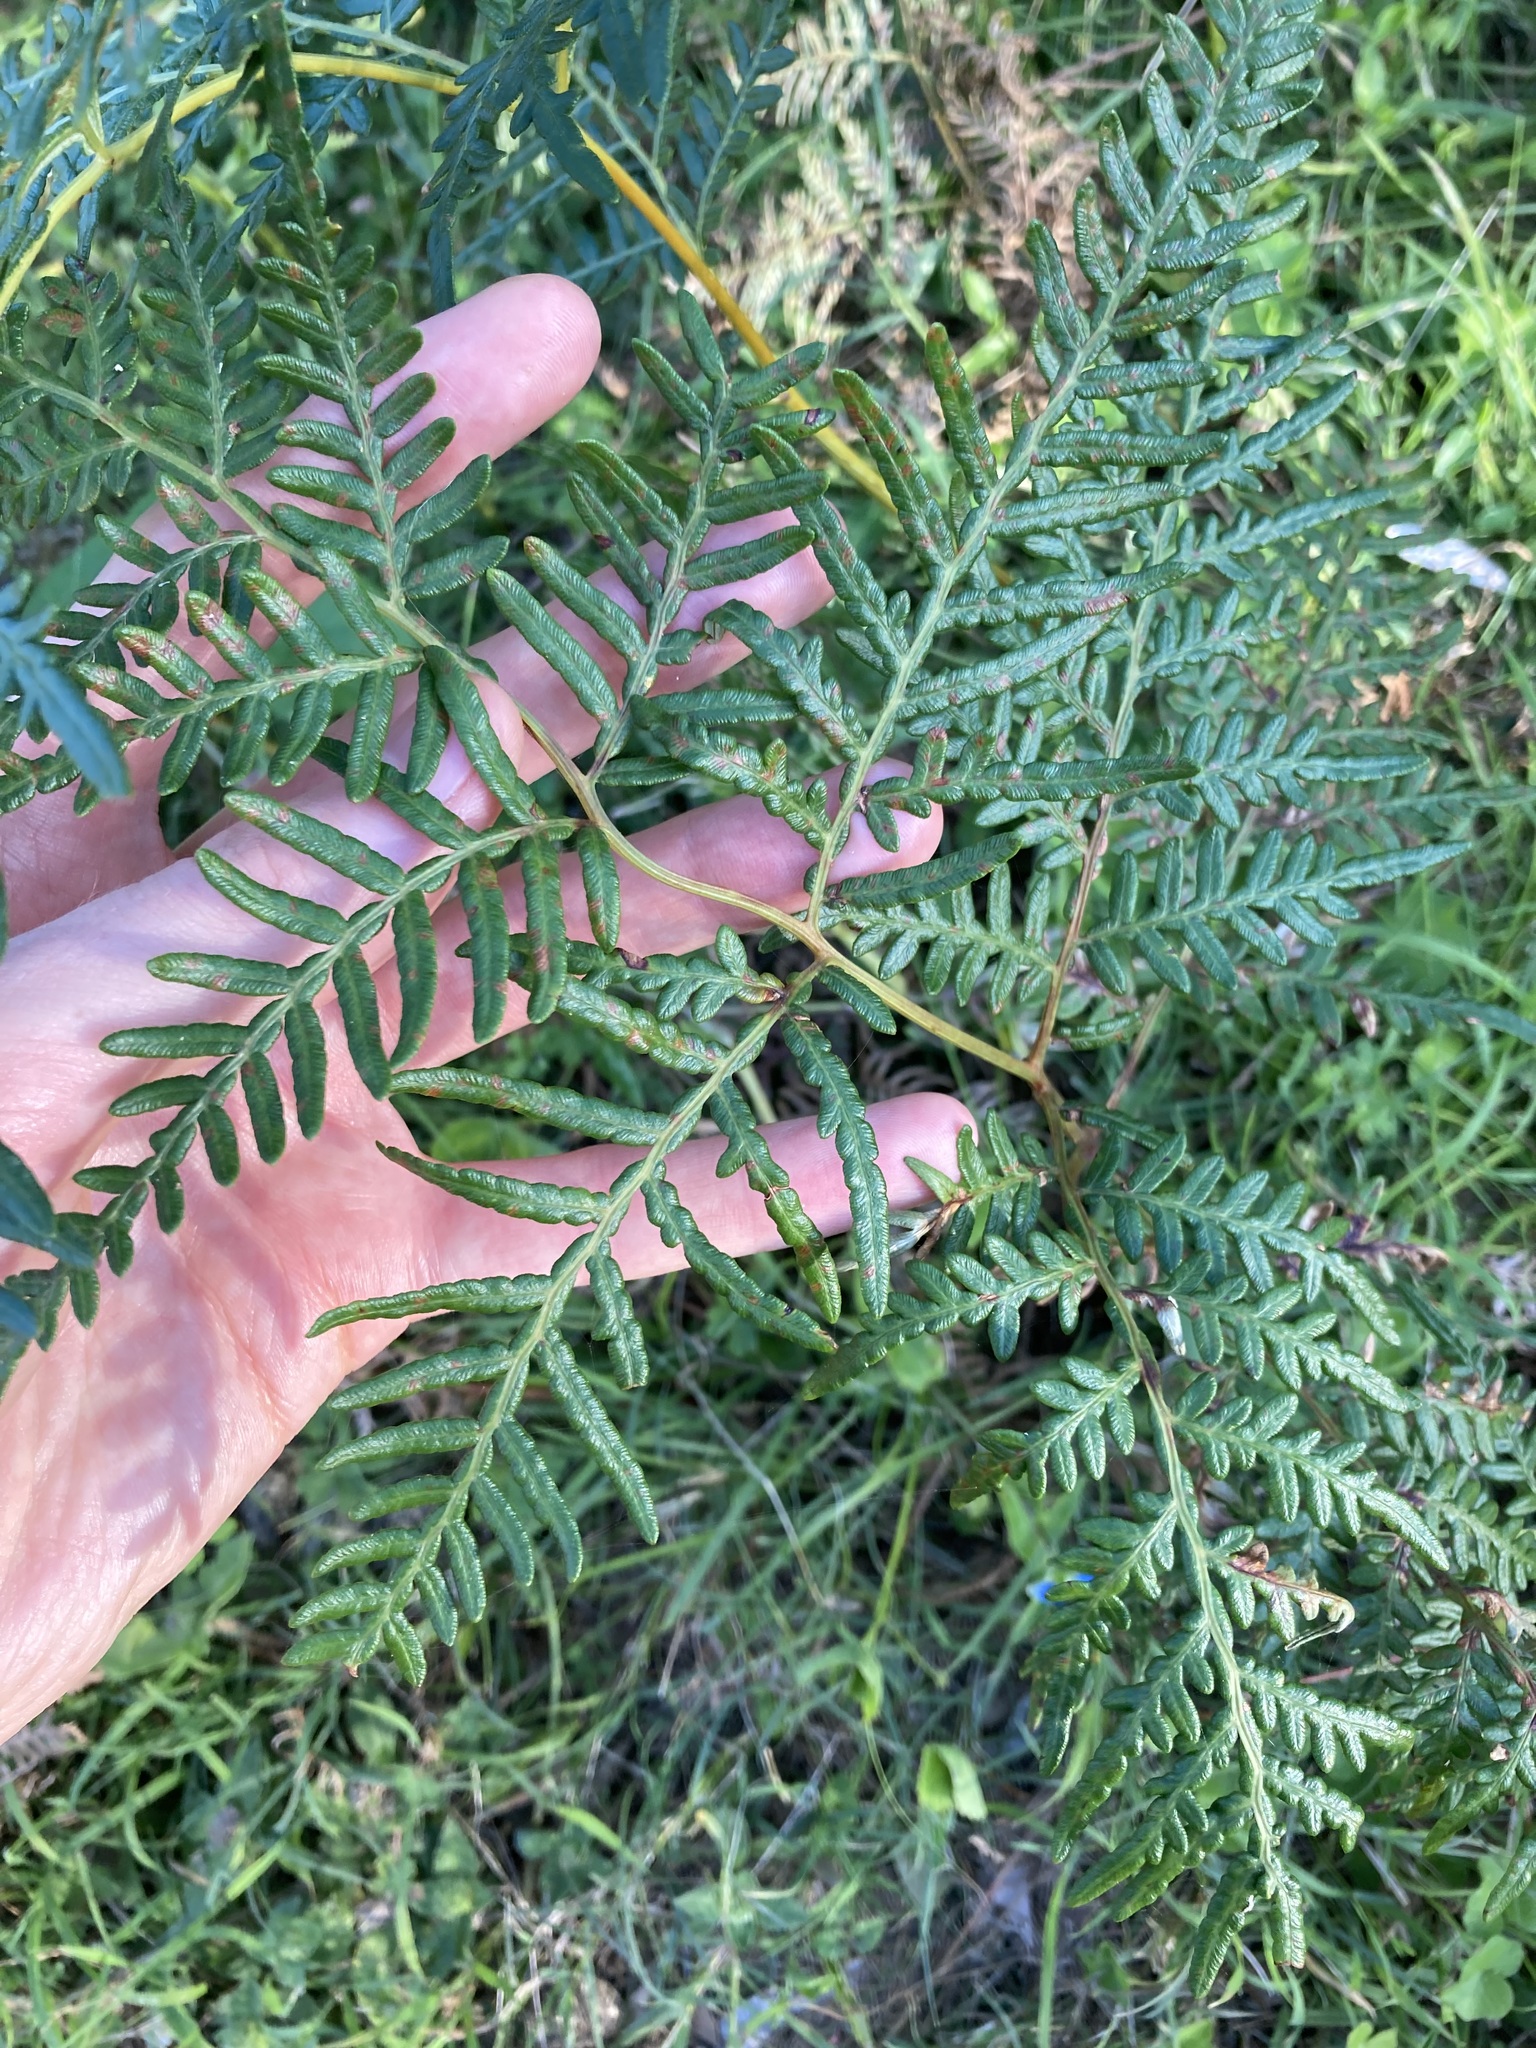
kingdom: Plantae
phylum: Tracheophyta
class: Polypodiopsida
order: Polypodiales
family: Dennstaedtiaceae
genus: Pteridium
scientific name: Pteridium esculentum
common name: Bracken fern
